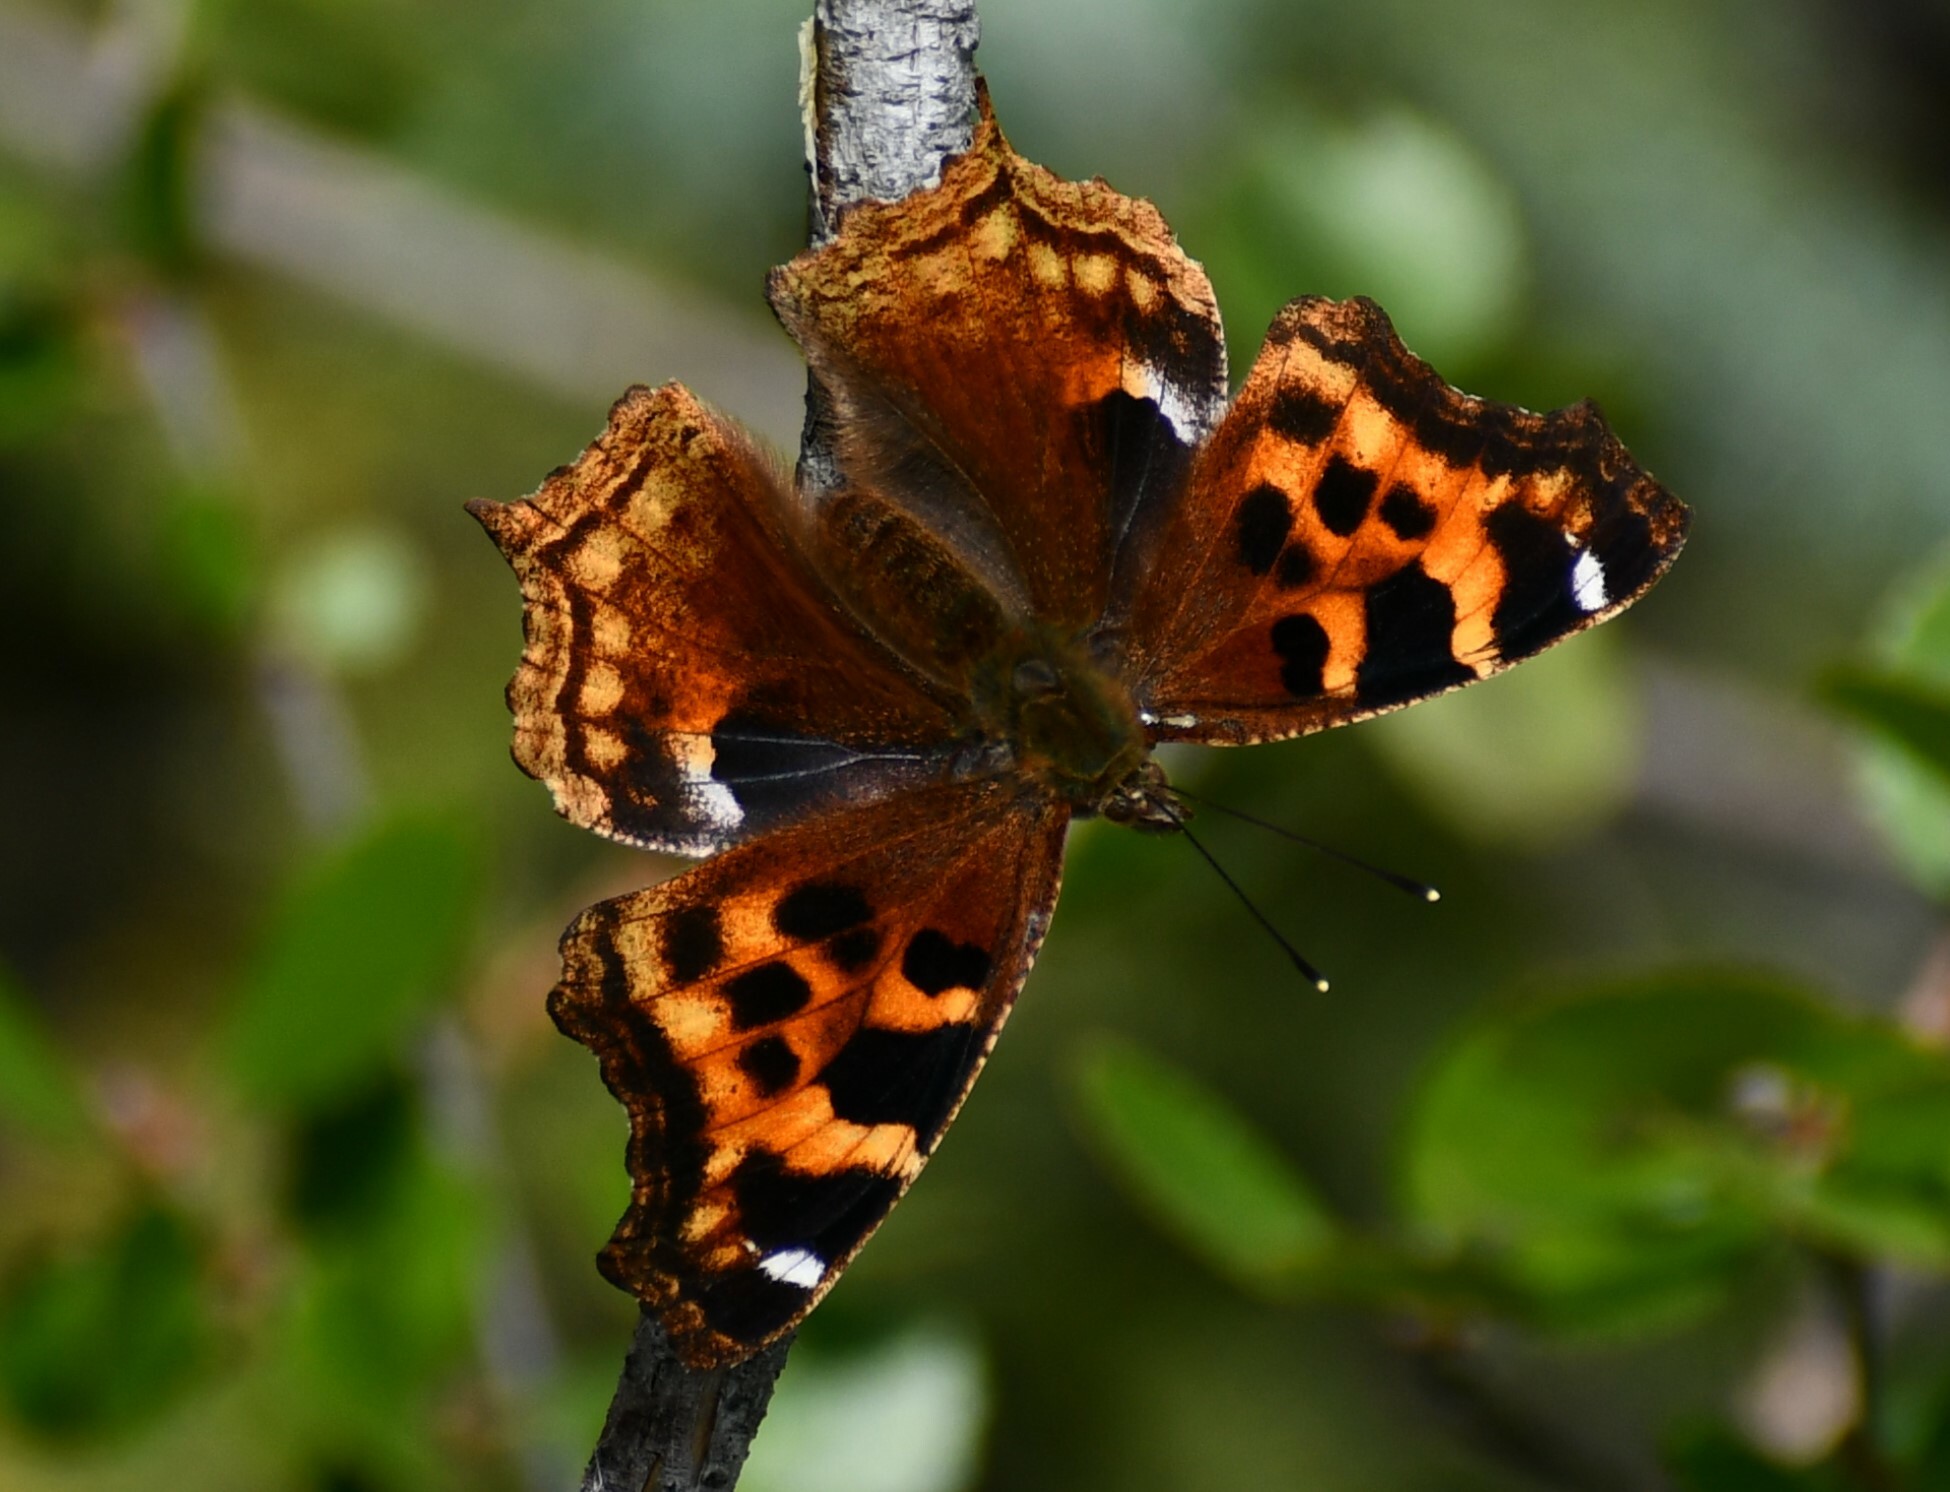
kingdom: Animalia
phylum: Arthropoda
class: Insecta
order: Lepidoptera
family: Nymphalidae
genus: Polygonia
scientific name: Polygonia vaualbum
